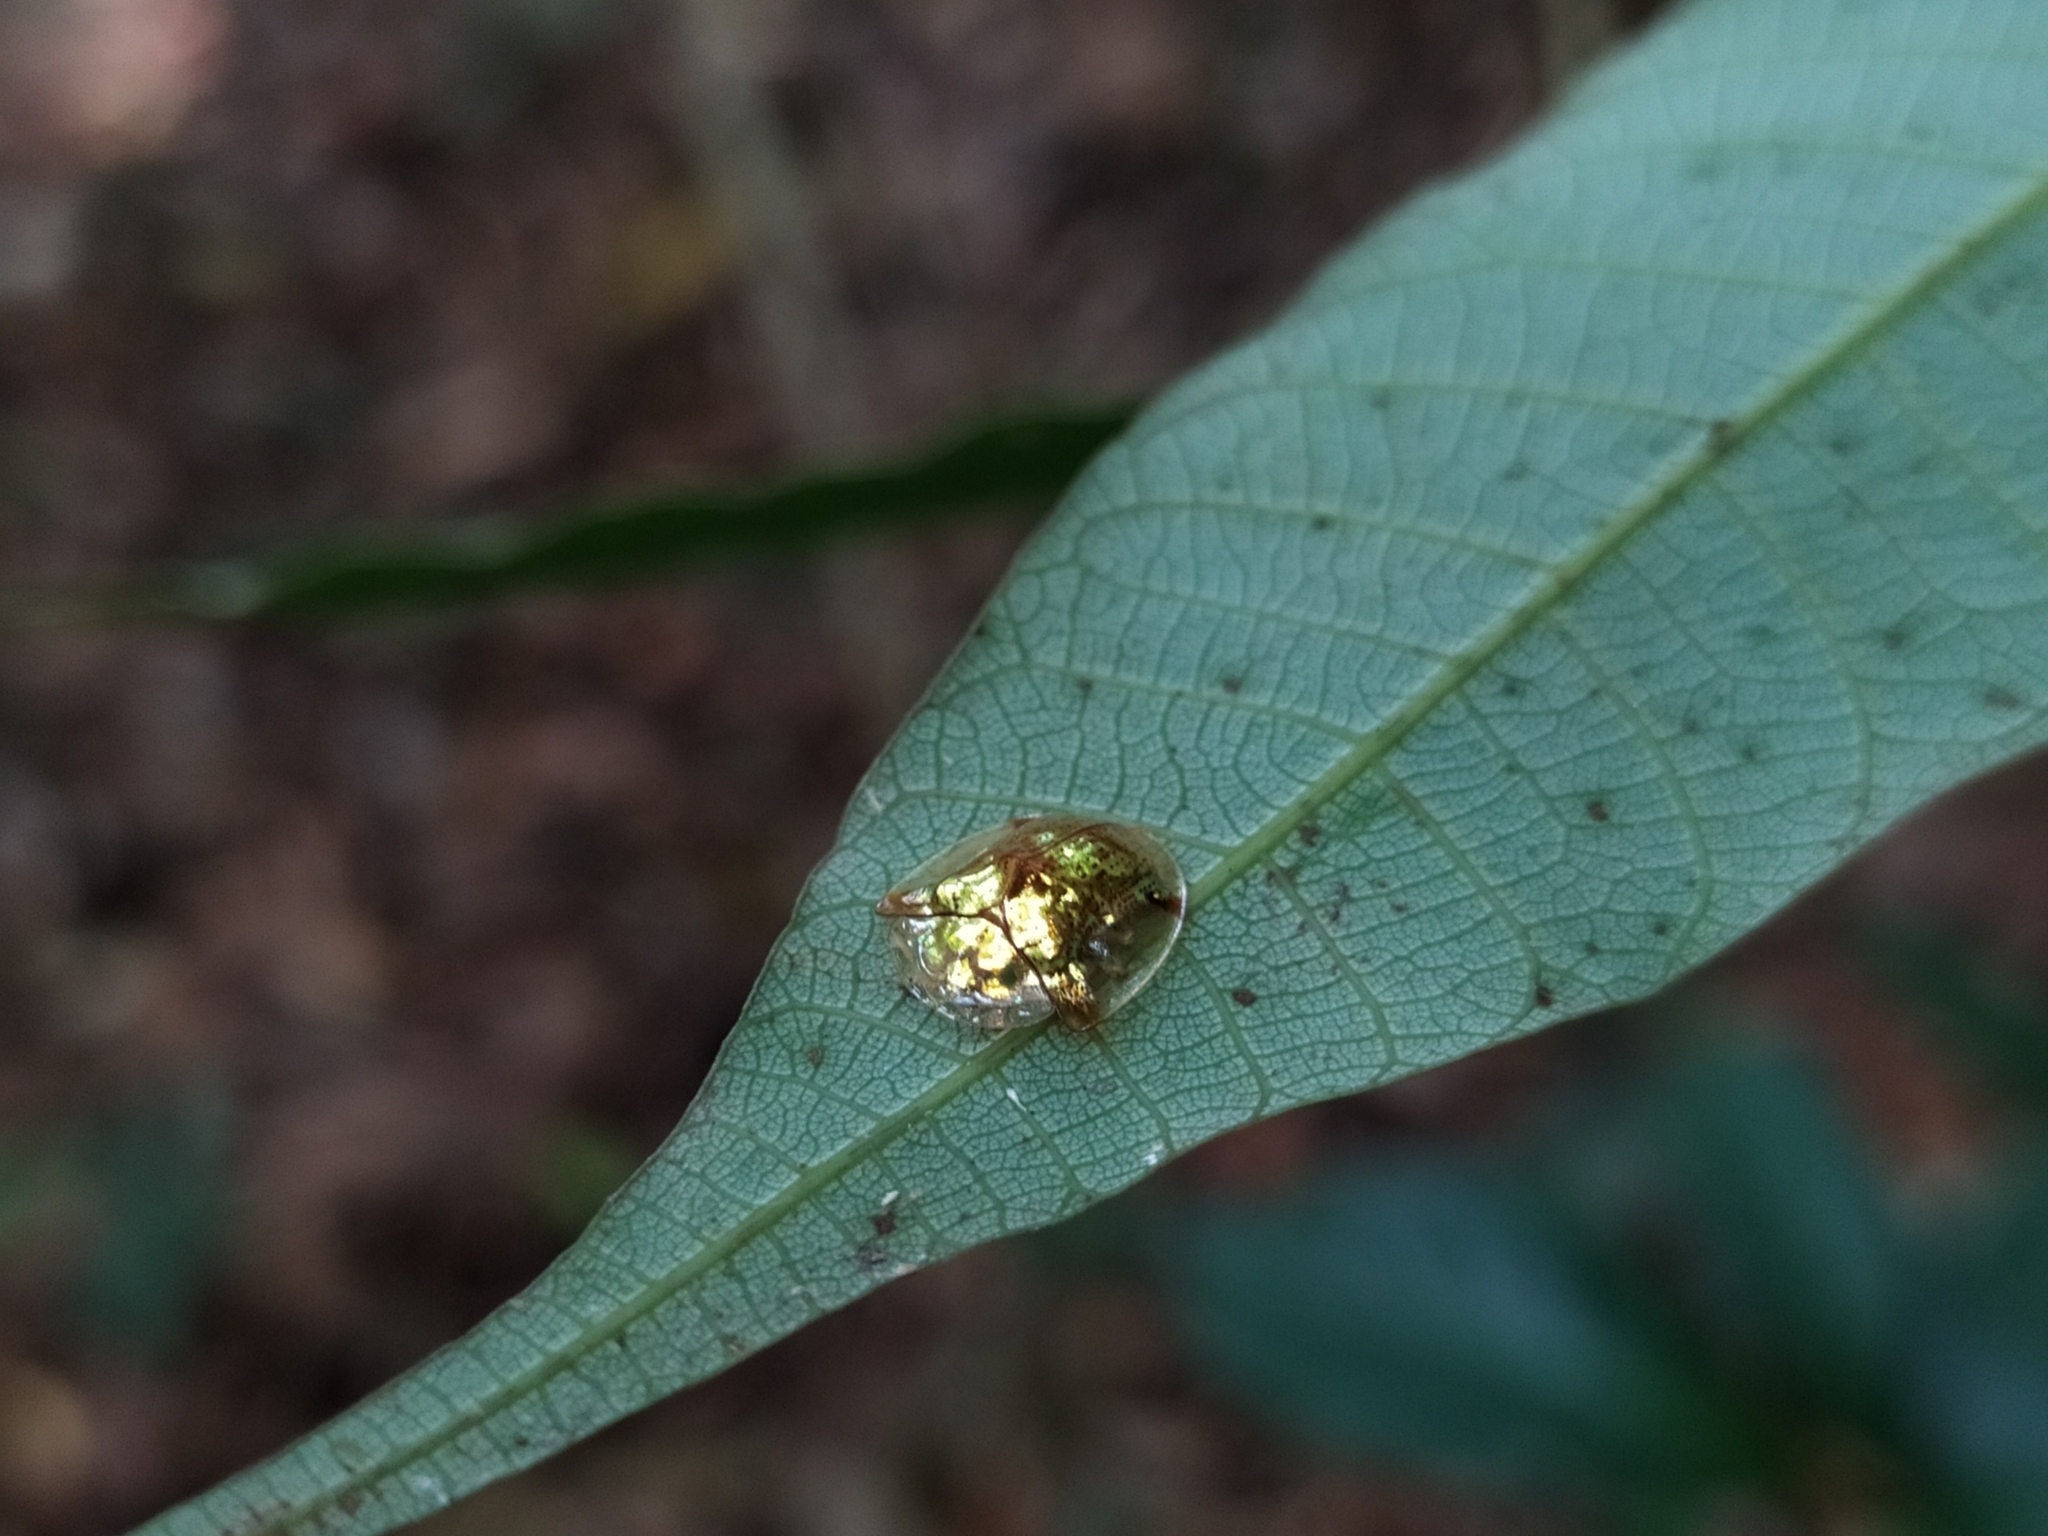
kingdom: Animalia
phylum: Arthropoda
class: Insecta
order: Coleoptera
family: Chrysomelidae
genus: Aspidimorpha
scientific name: Aspidimorpha sanctaecrucis
